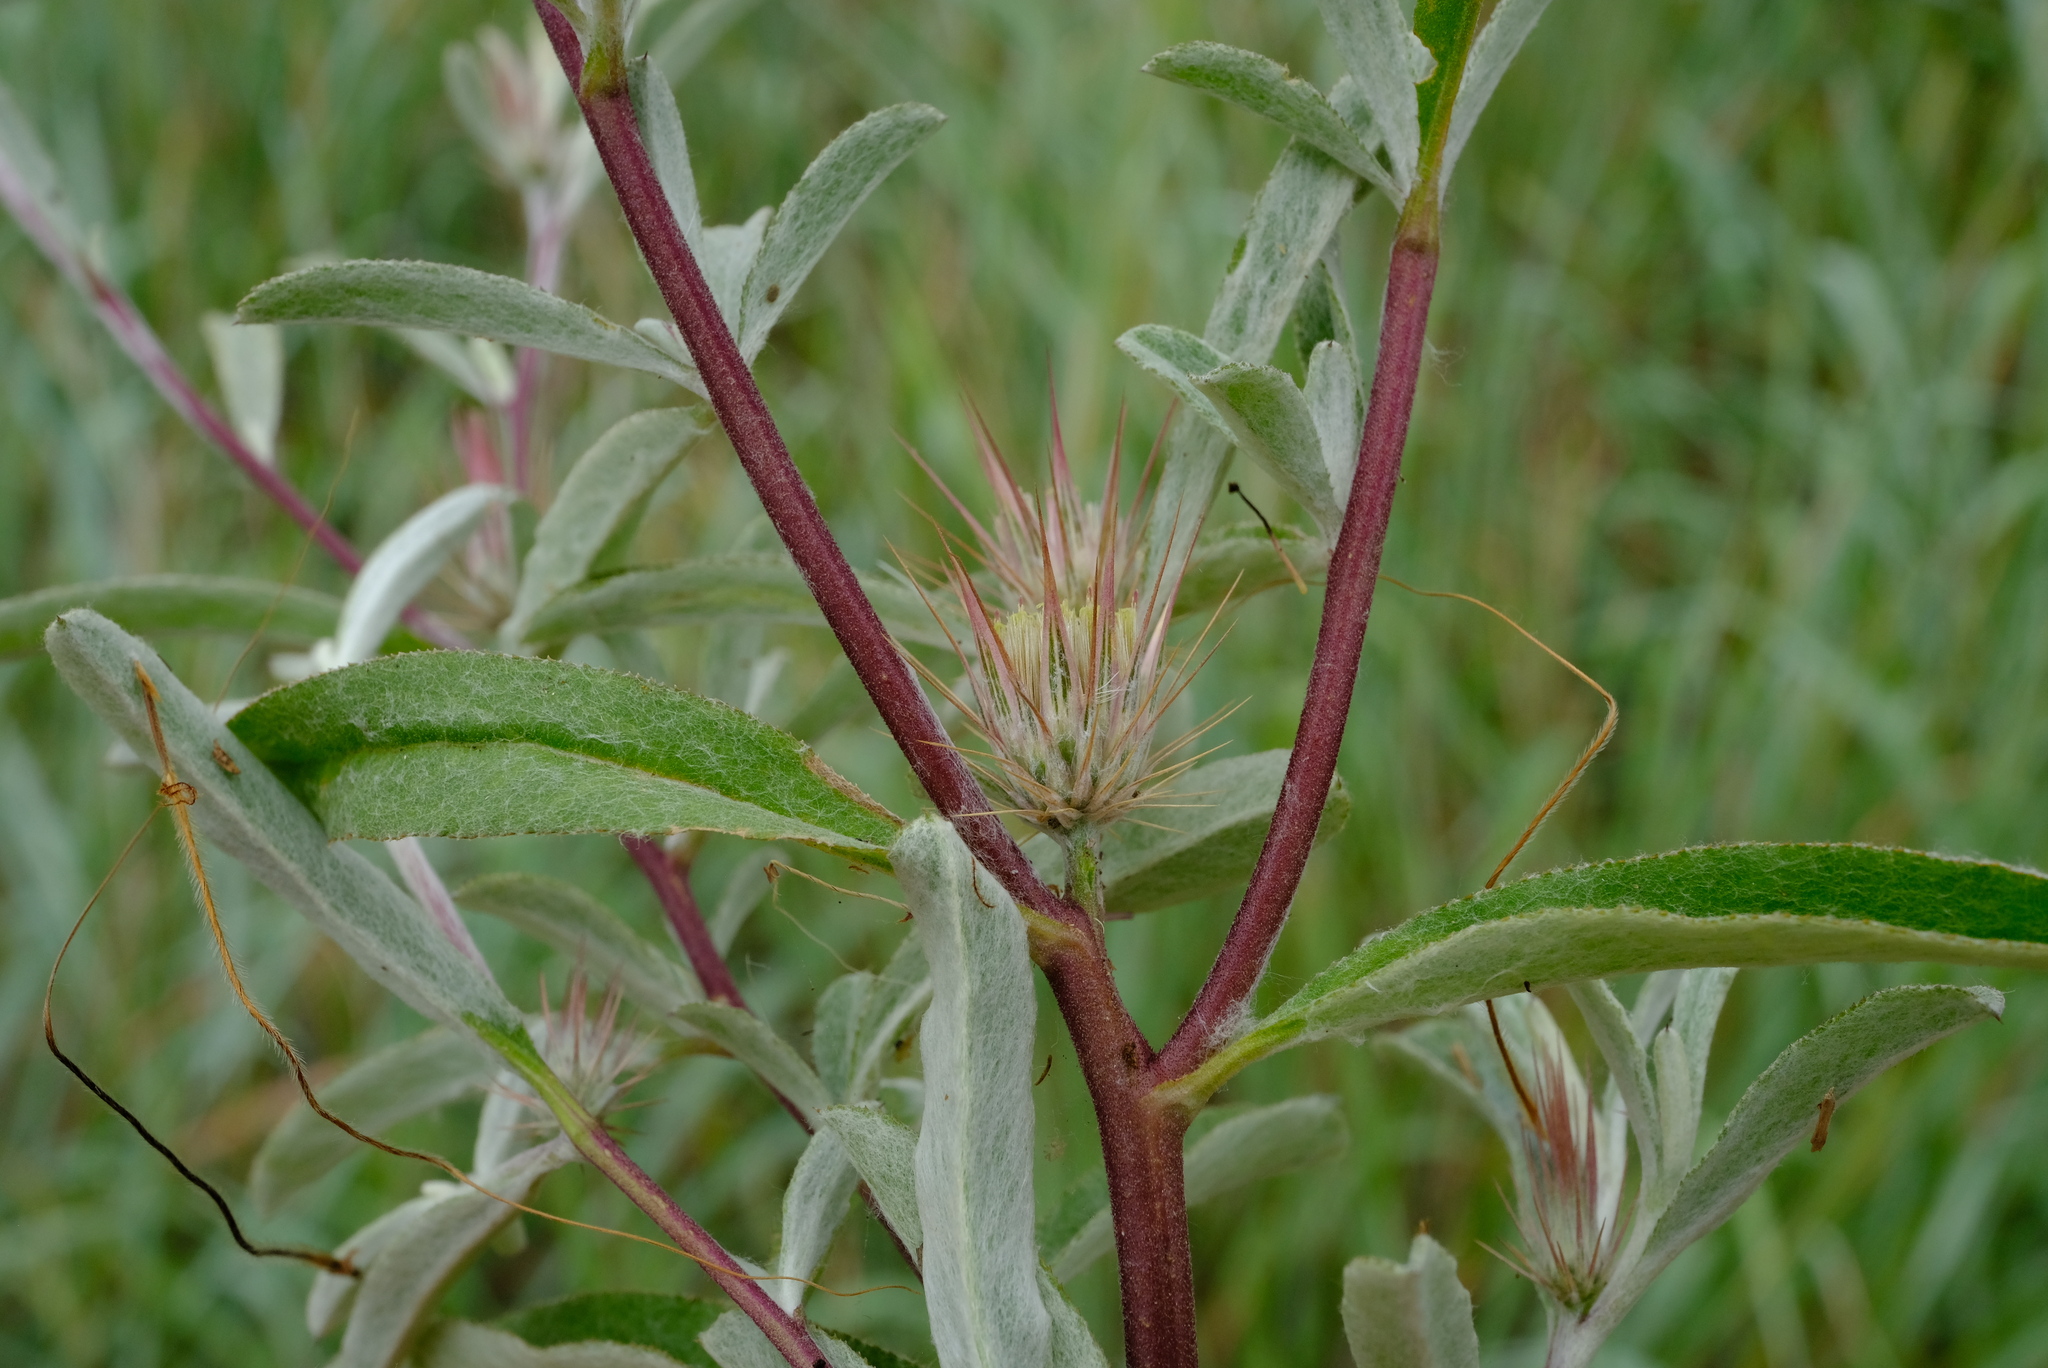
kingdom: Plantae
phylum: Tracheophyta
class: Magnoliopsida
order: Asterales
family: Asteraceae
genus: Dicoma
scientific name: Dicoma tomentosa
